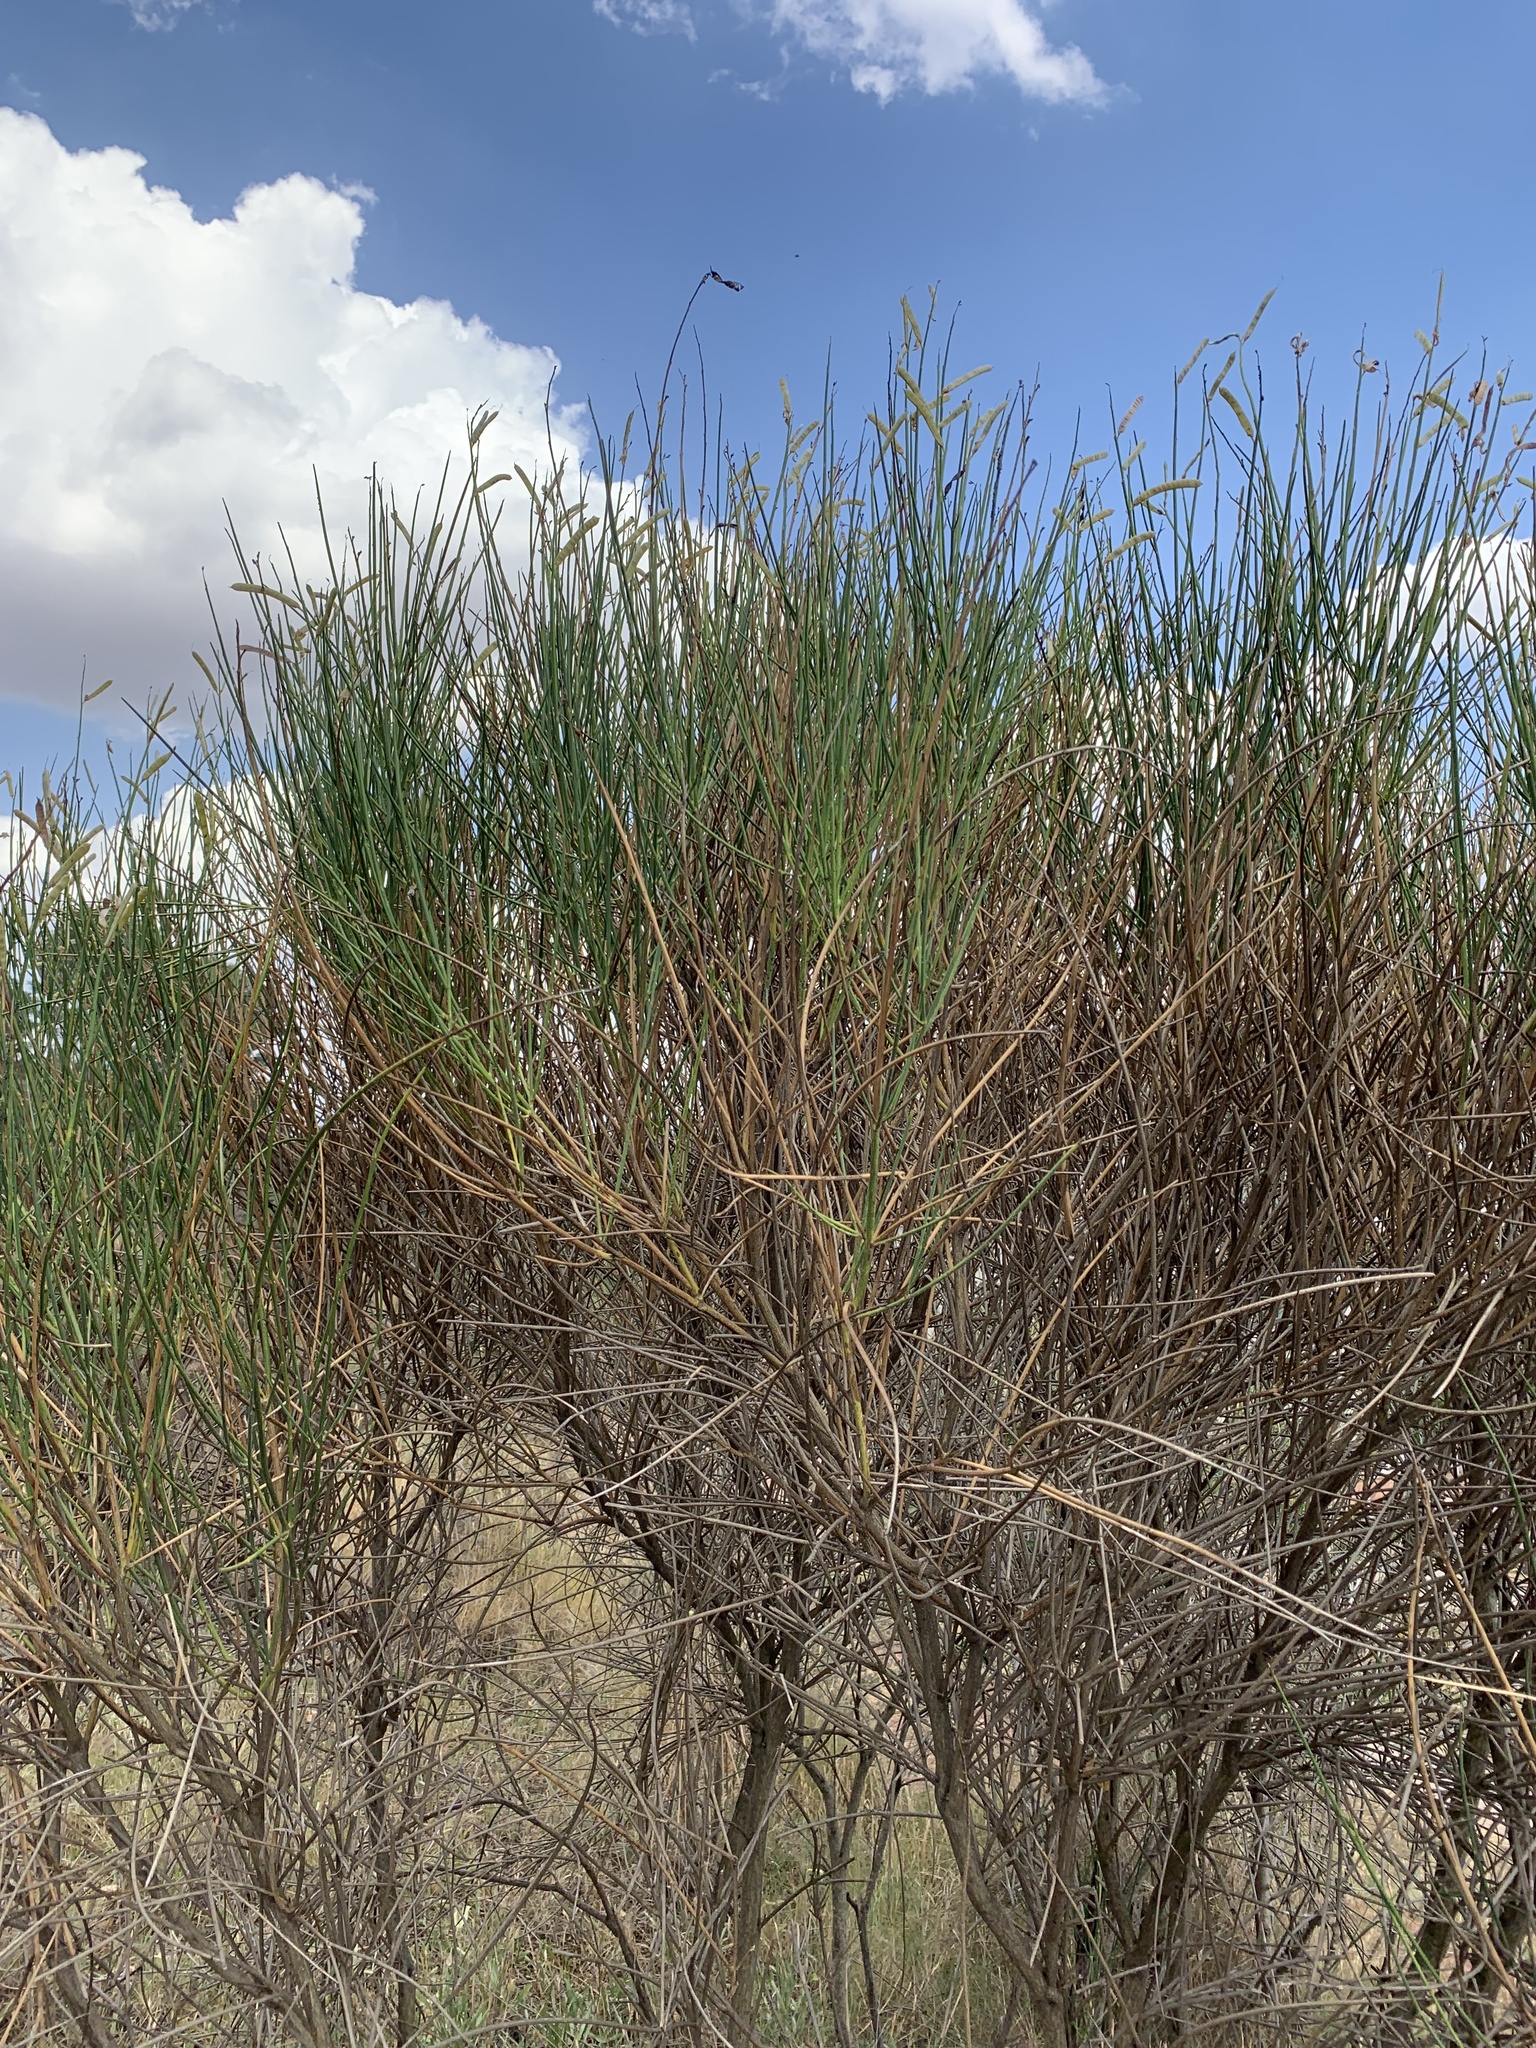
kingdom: Plantae
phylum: Tracheophyta
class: Magnoliopsida
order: Fabales
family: Fabaceae
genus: Spartium
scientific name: Spartium junceum
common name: Spanish broom
